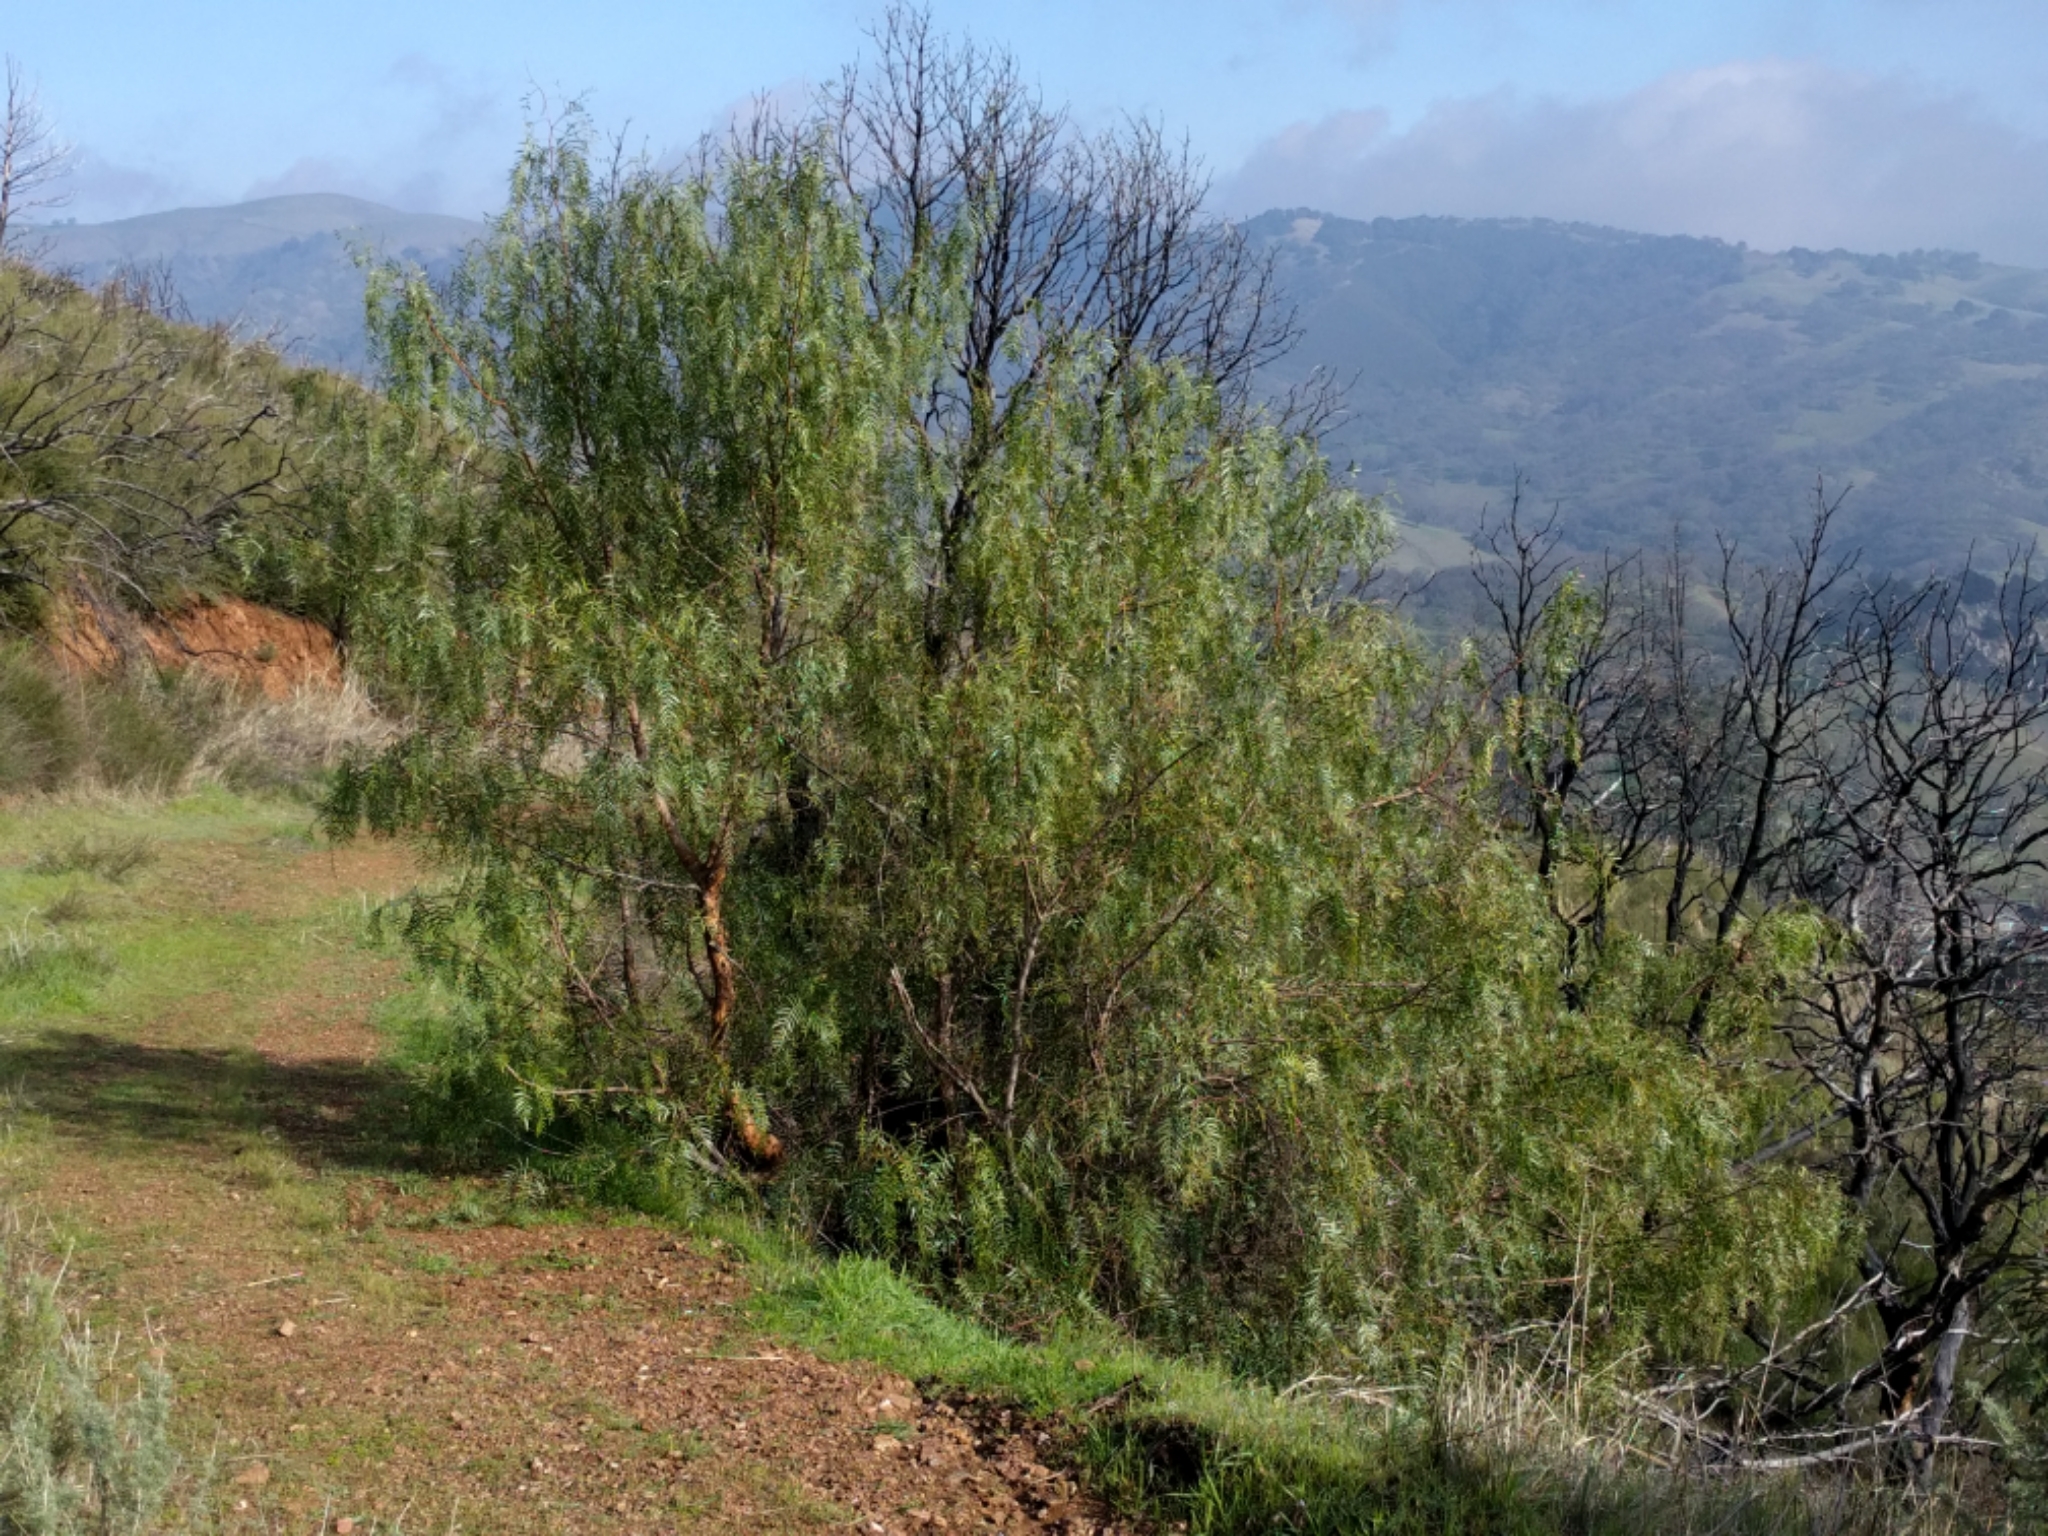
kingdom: Plantae
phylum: Tracheophyta
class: Magnoliopsida
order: Sapindales
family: Anacardiaceae
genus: Schinus
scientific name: Schinus molle
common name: Peruvian peppertree
